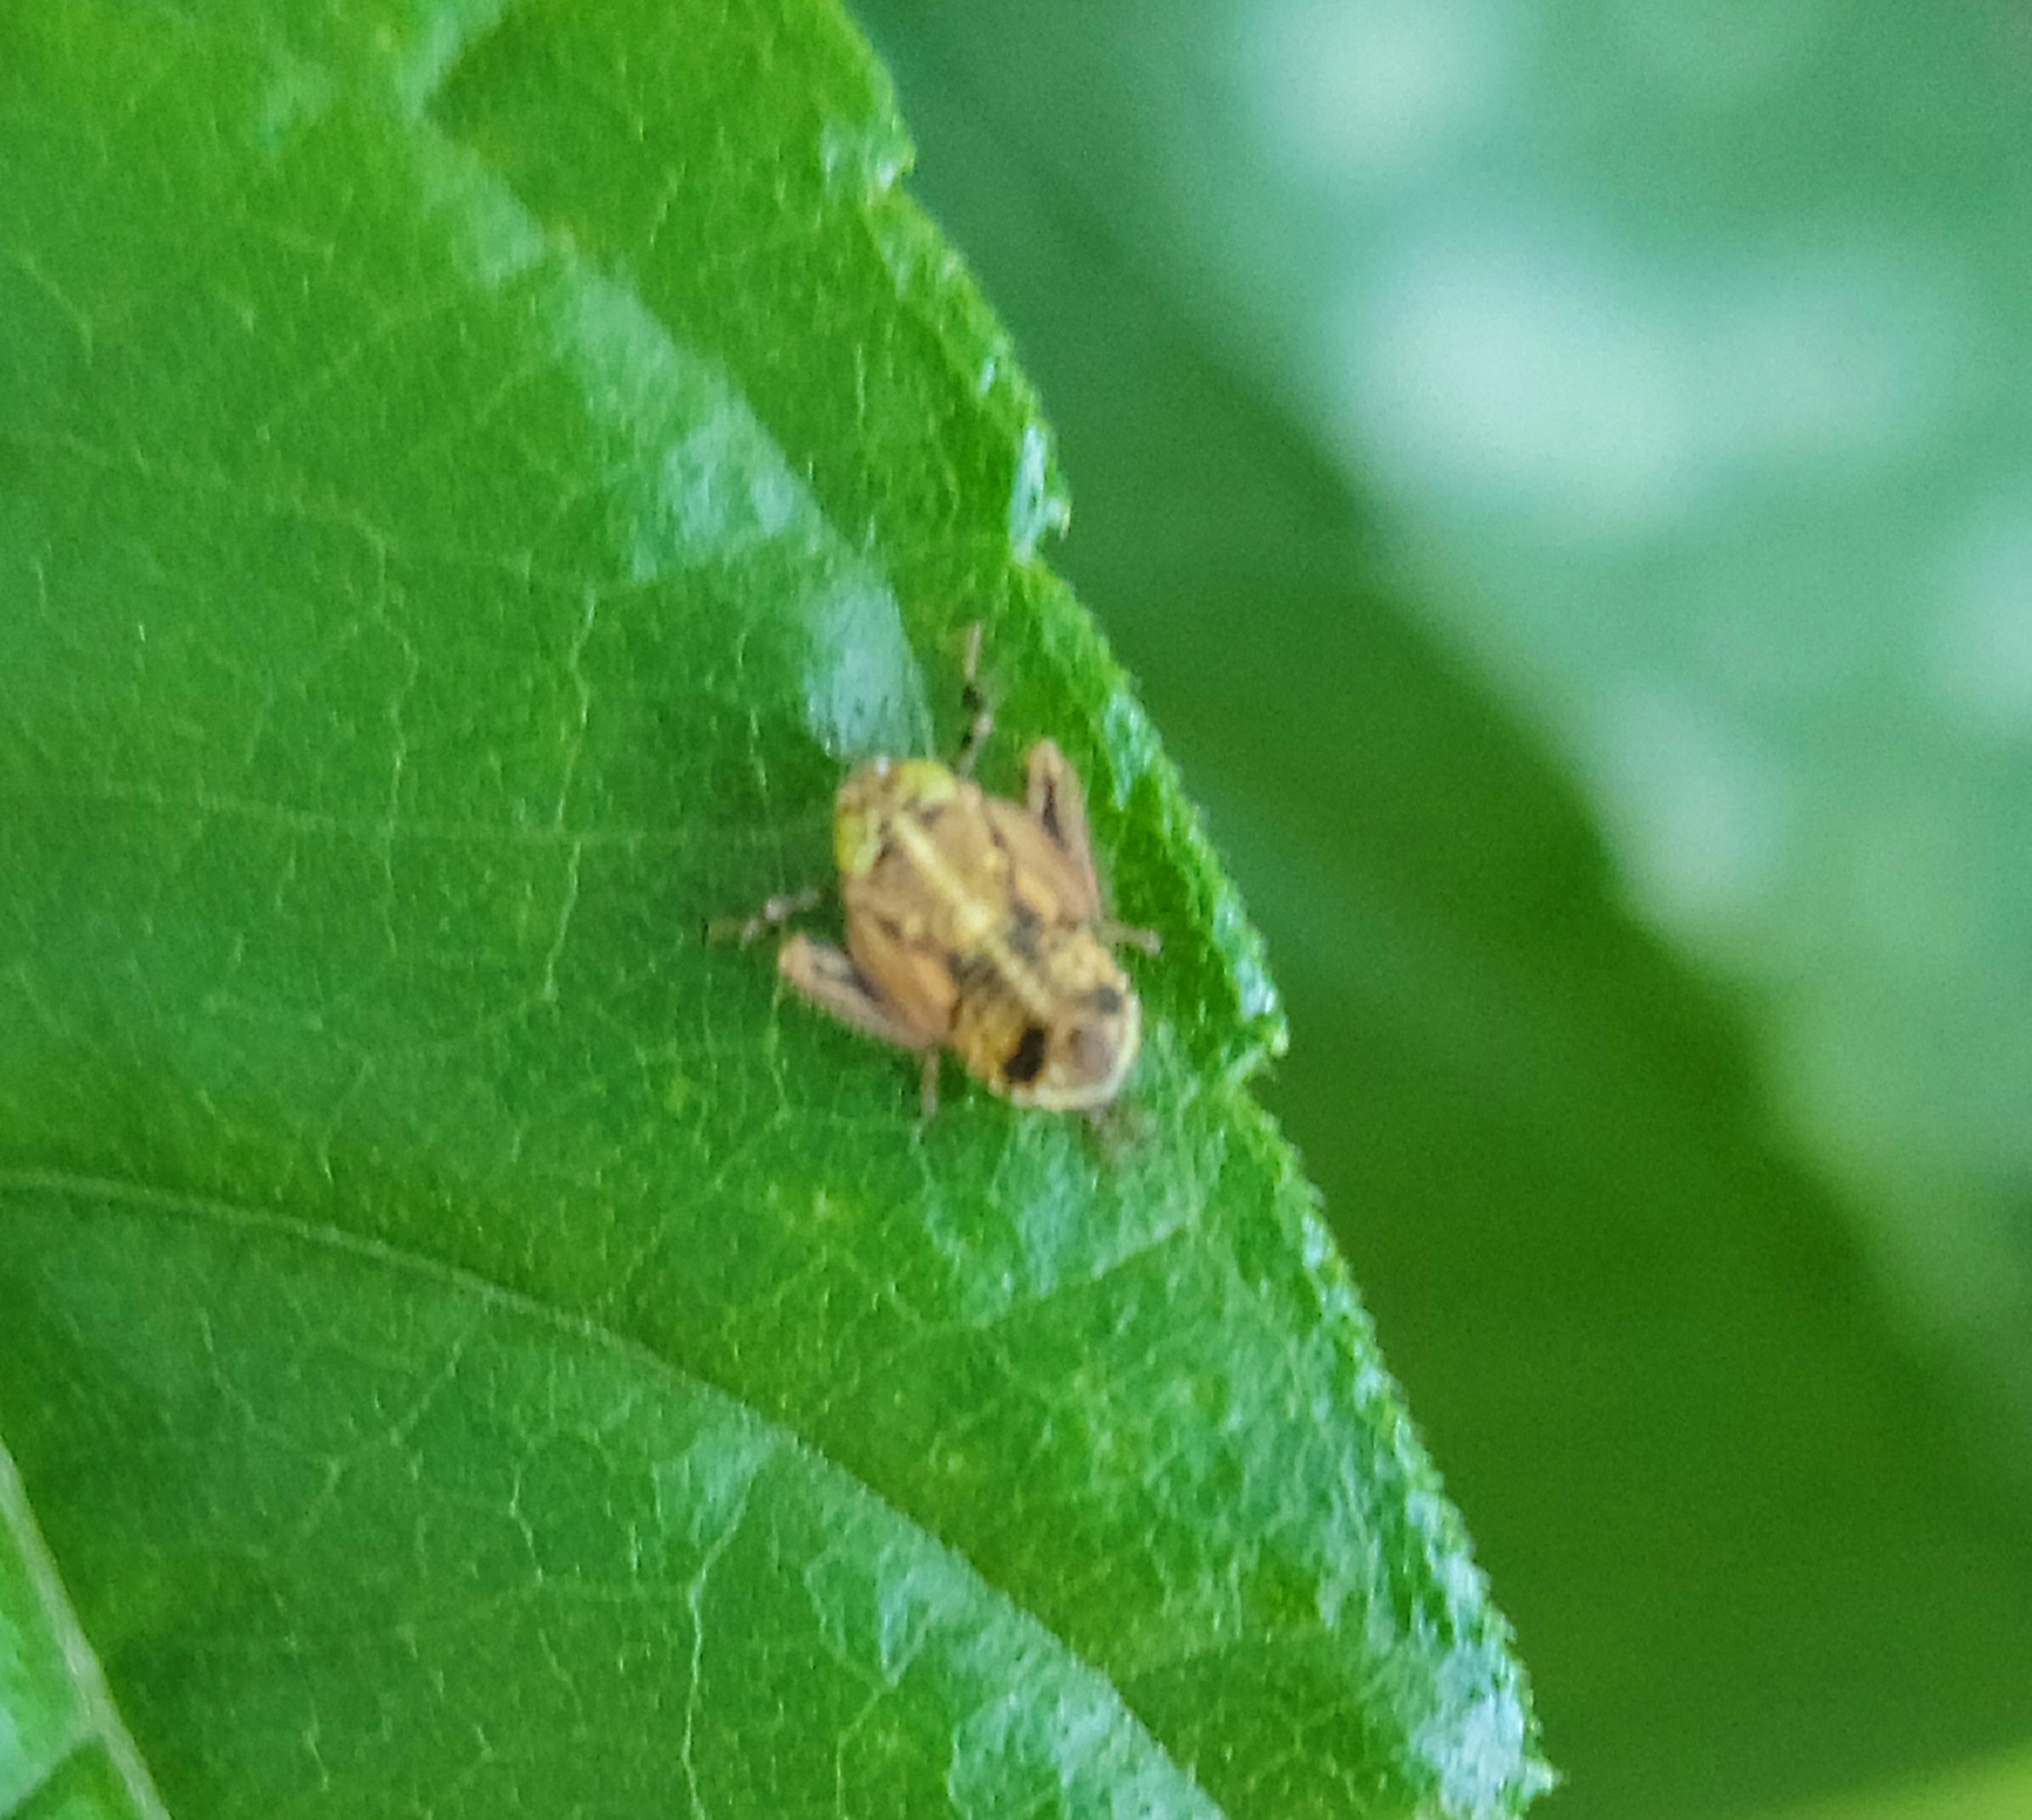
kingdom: Animalia
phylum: Arthropoda
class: Insecta
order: Hemiptera
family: Cicadellidae
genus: Jikradia
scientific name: Jikradia olitoria
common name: Coppery leafhopper
